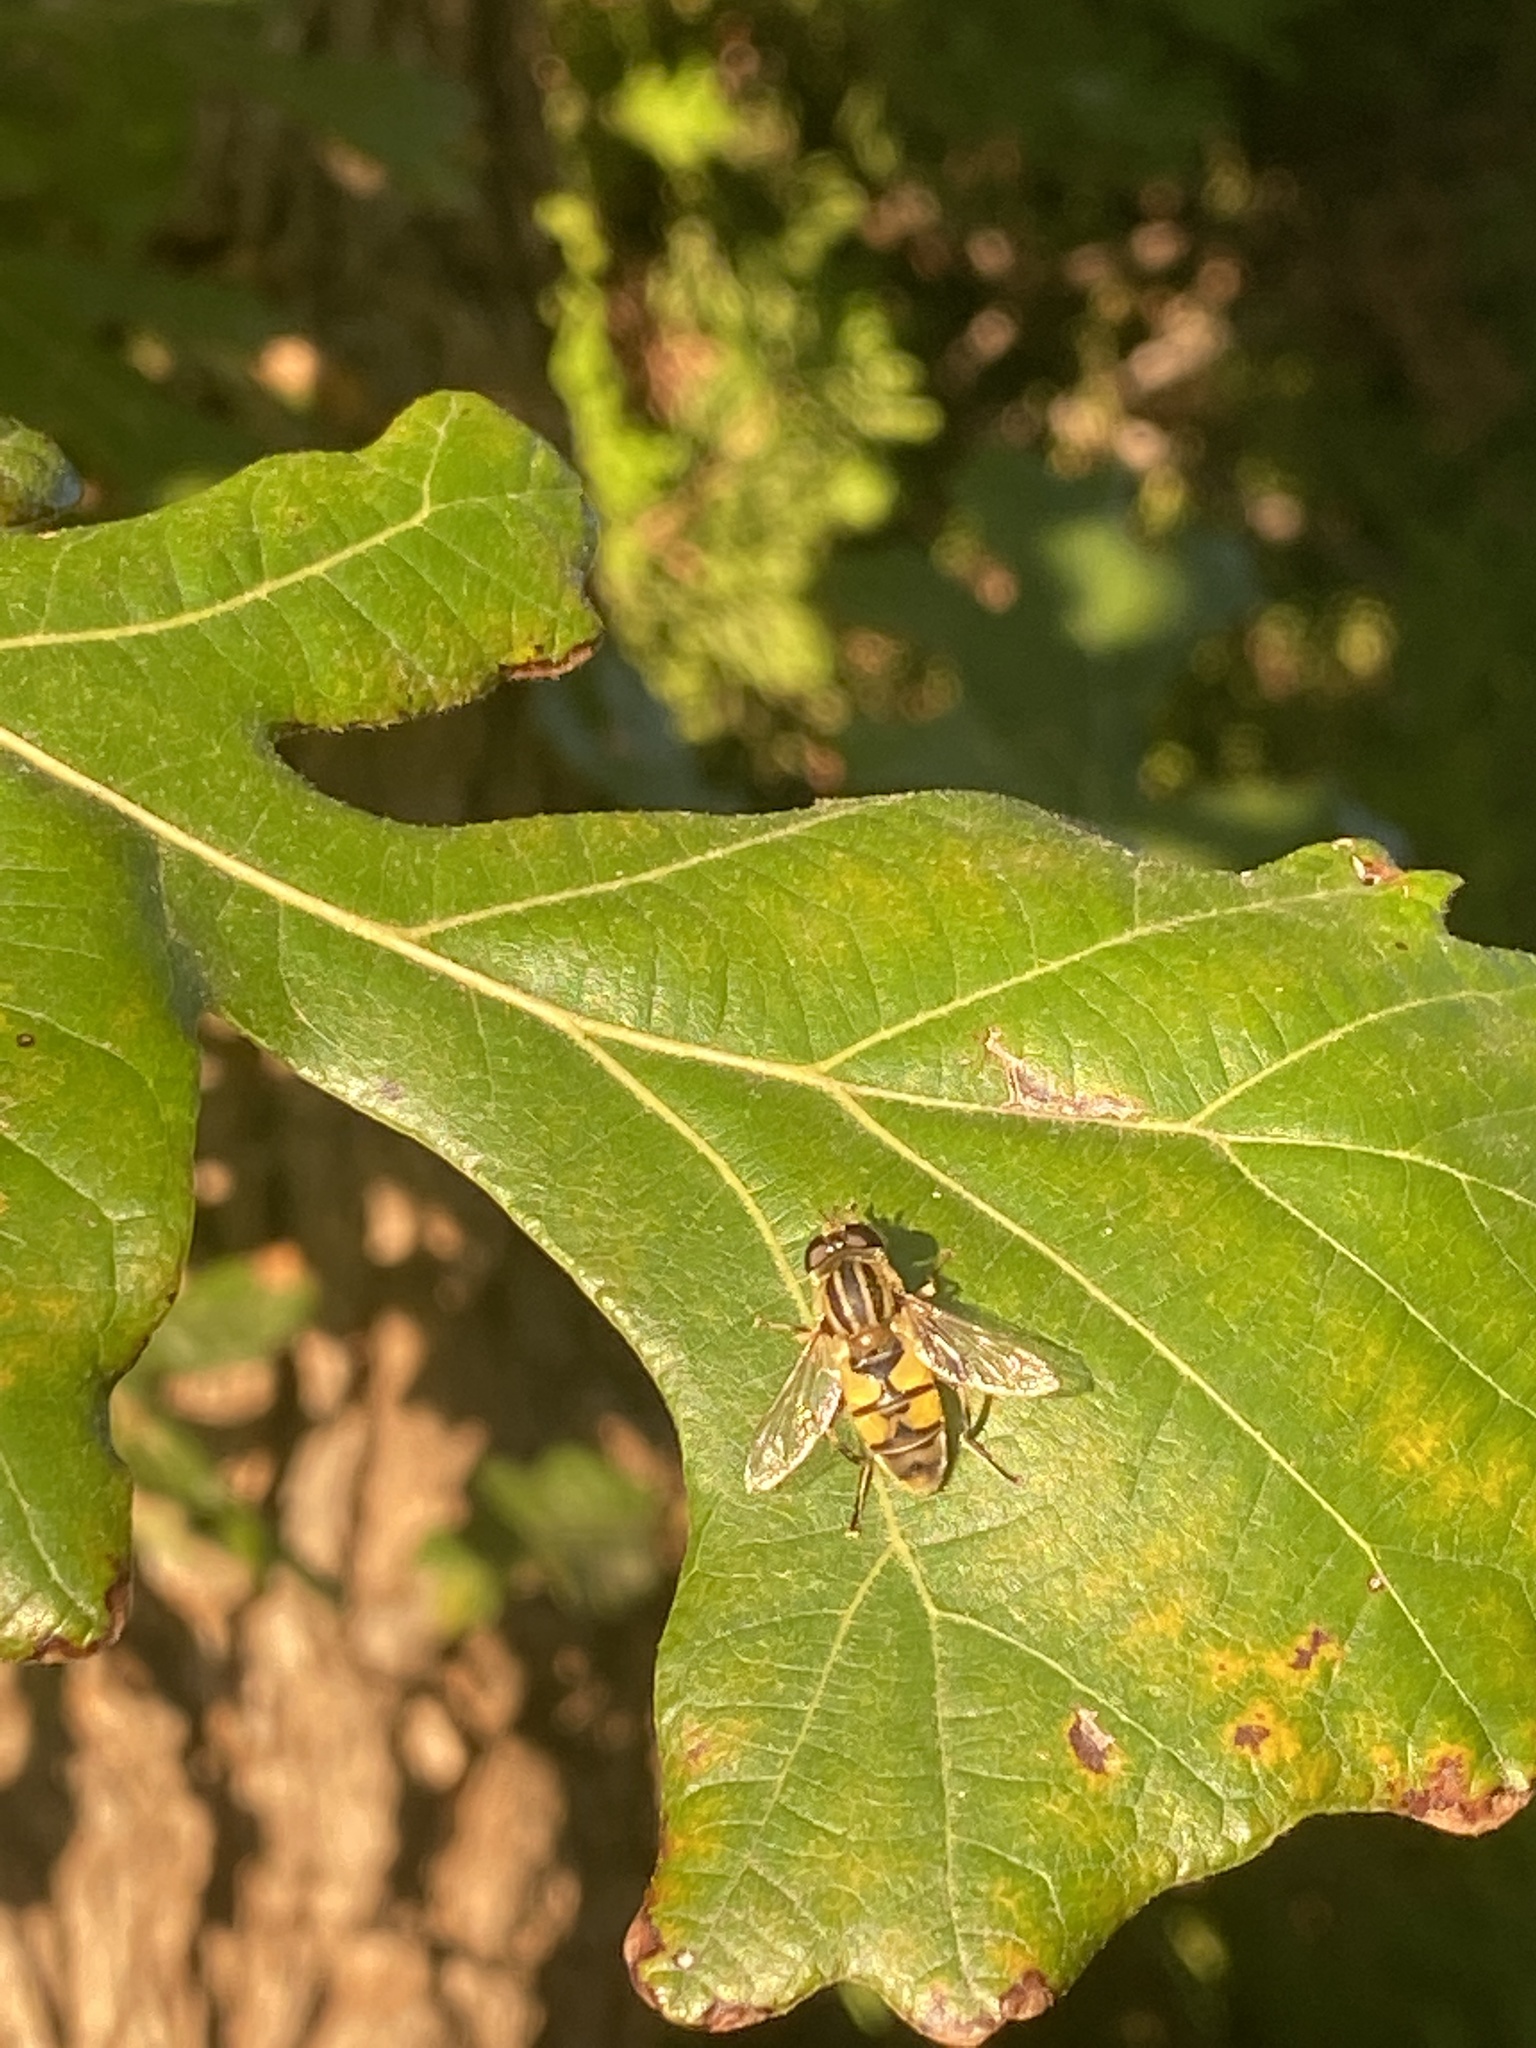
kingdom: Animalia
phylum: Arthropoda
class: Insecta
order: Diptera
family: Syrphidae
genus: Helophilus
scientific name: Helophilus latifrons
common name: Broad-headed marsh fly
